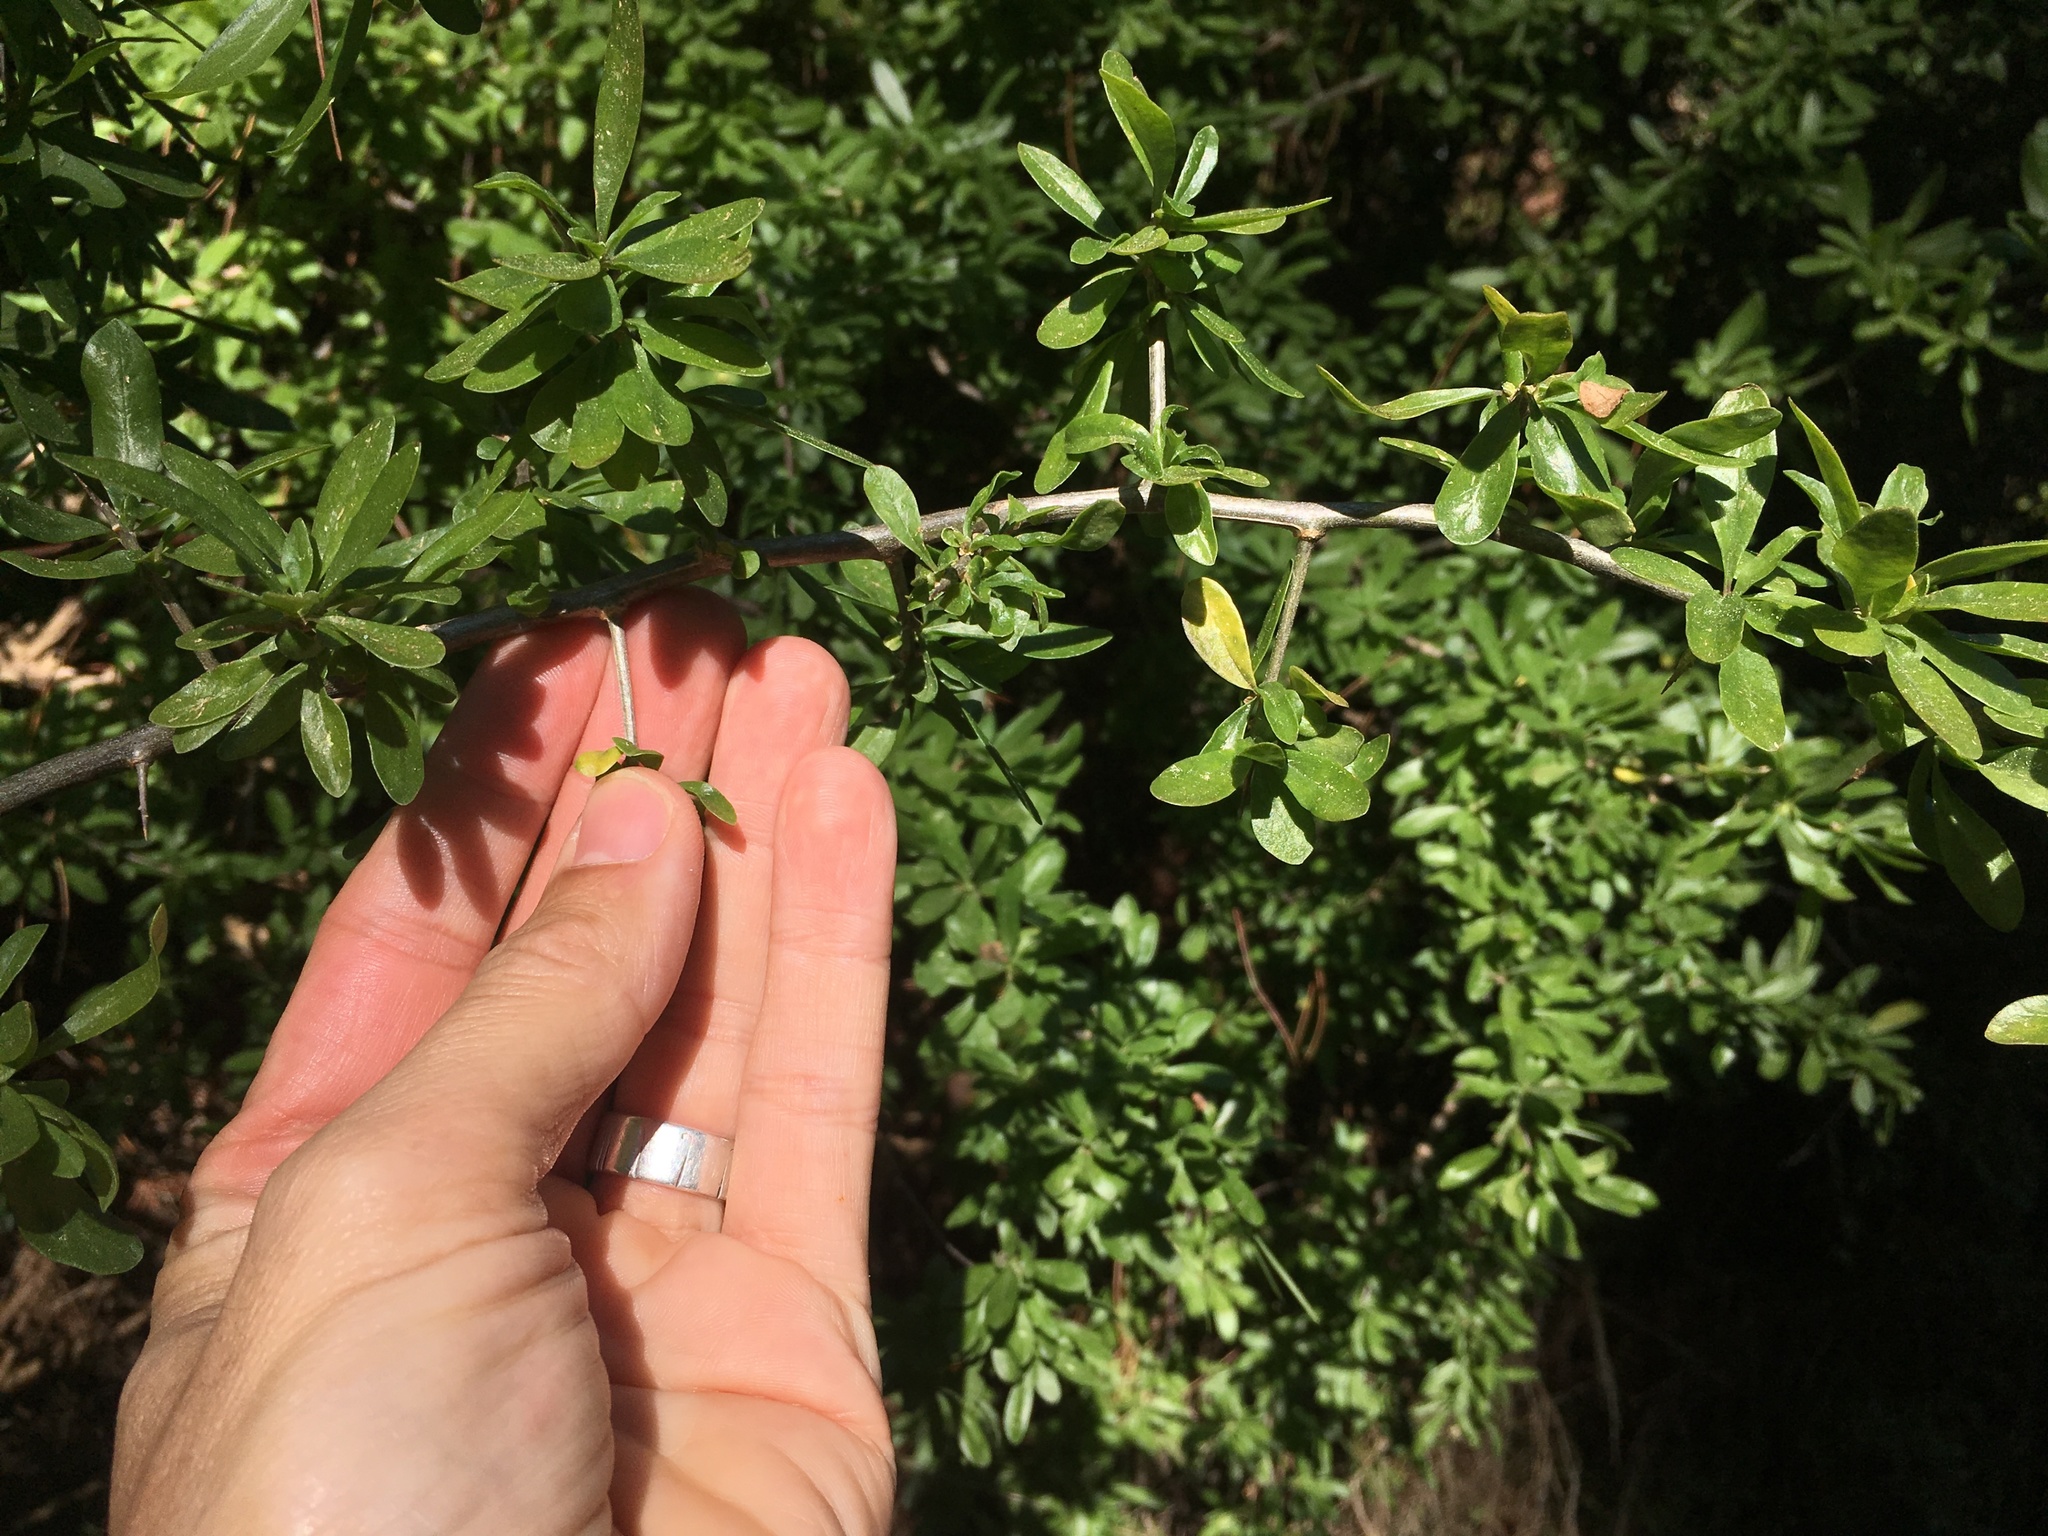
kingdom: Plantae
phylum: Tracheophyta
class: Magnoliopsida
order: Solanales
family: Solanaceae
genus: Lycium
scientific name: Lycium ferocissimum
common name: African boxthorn
